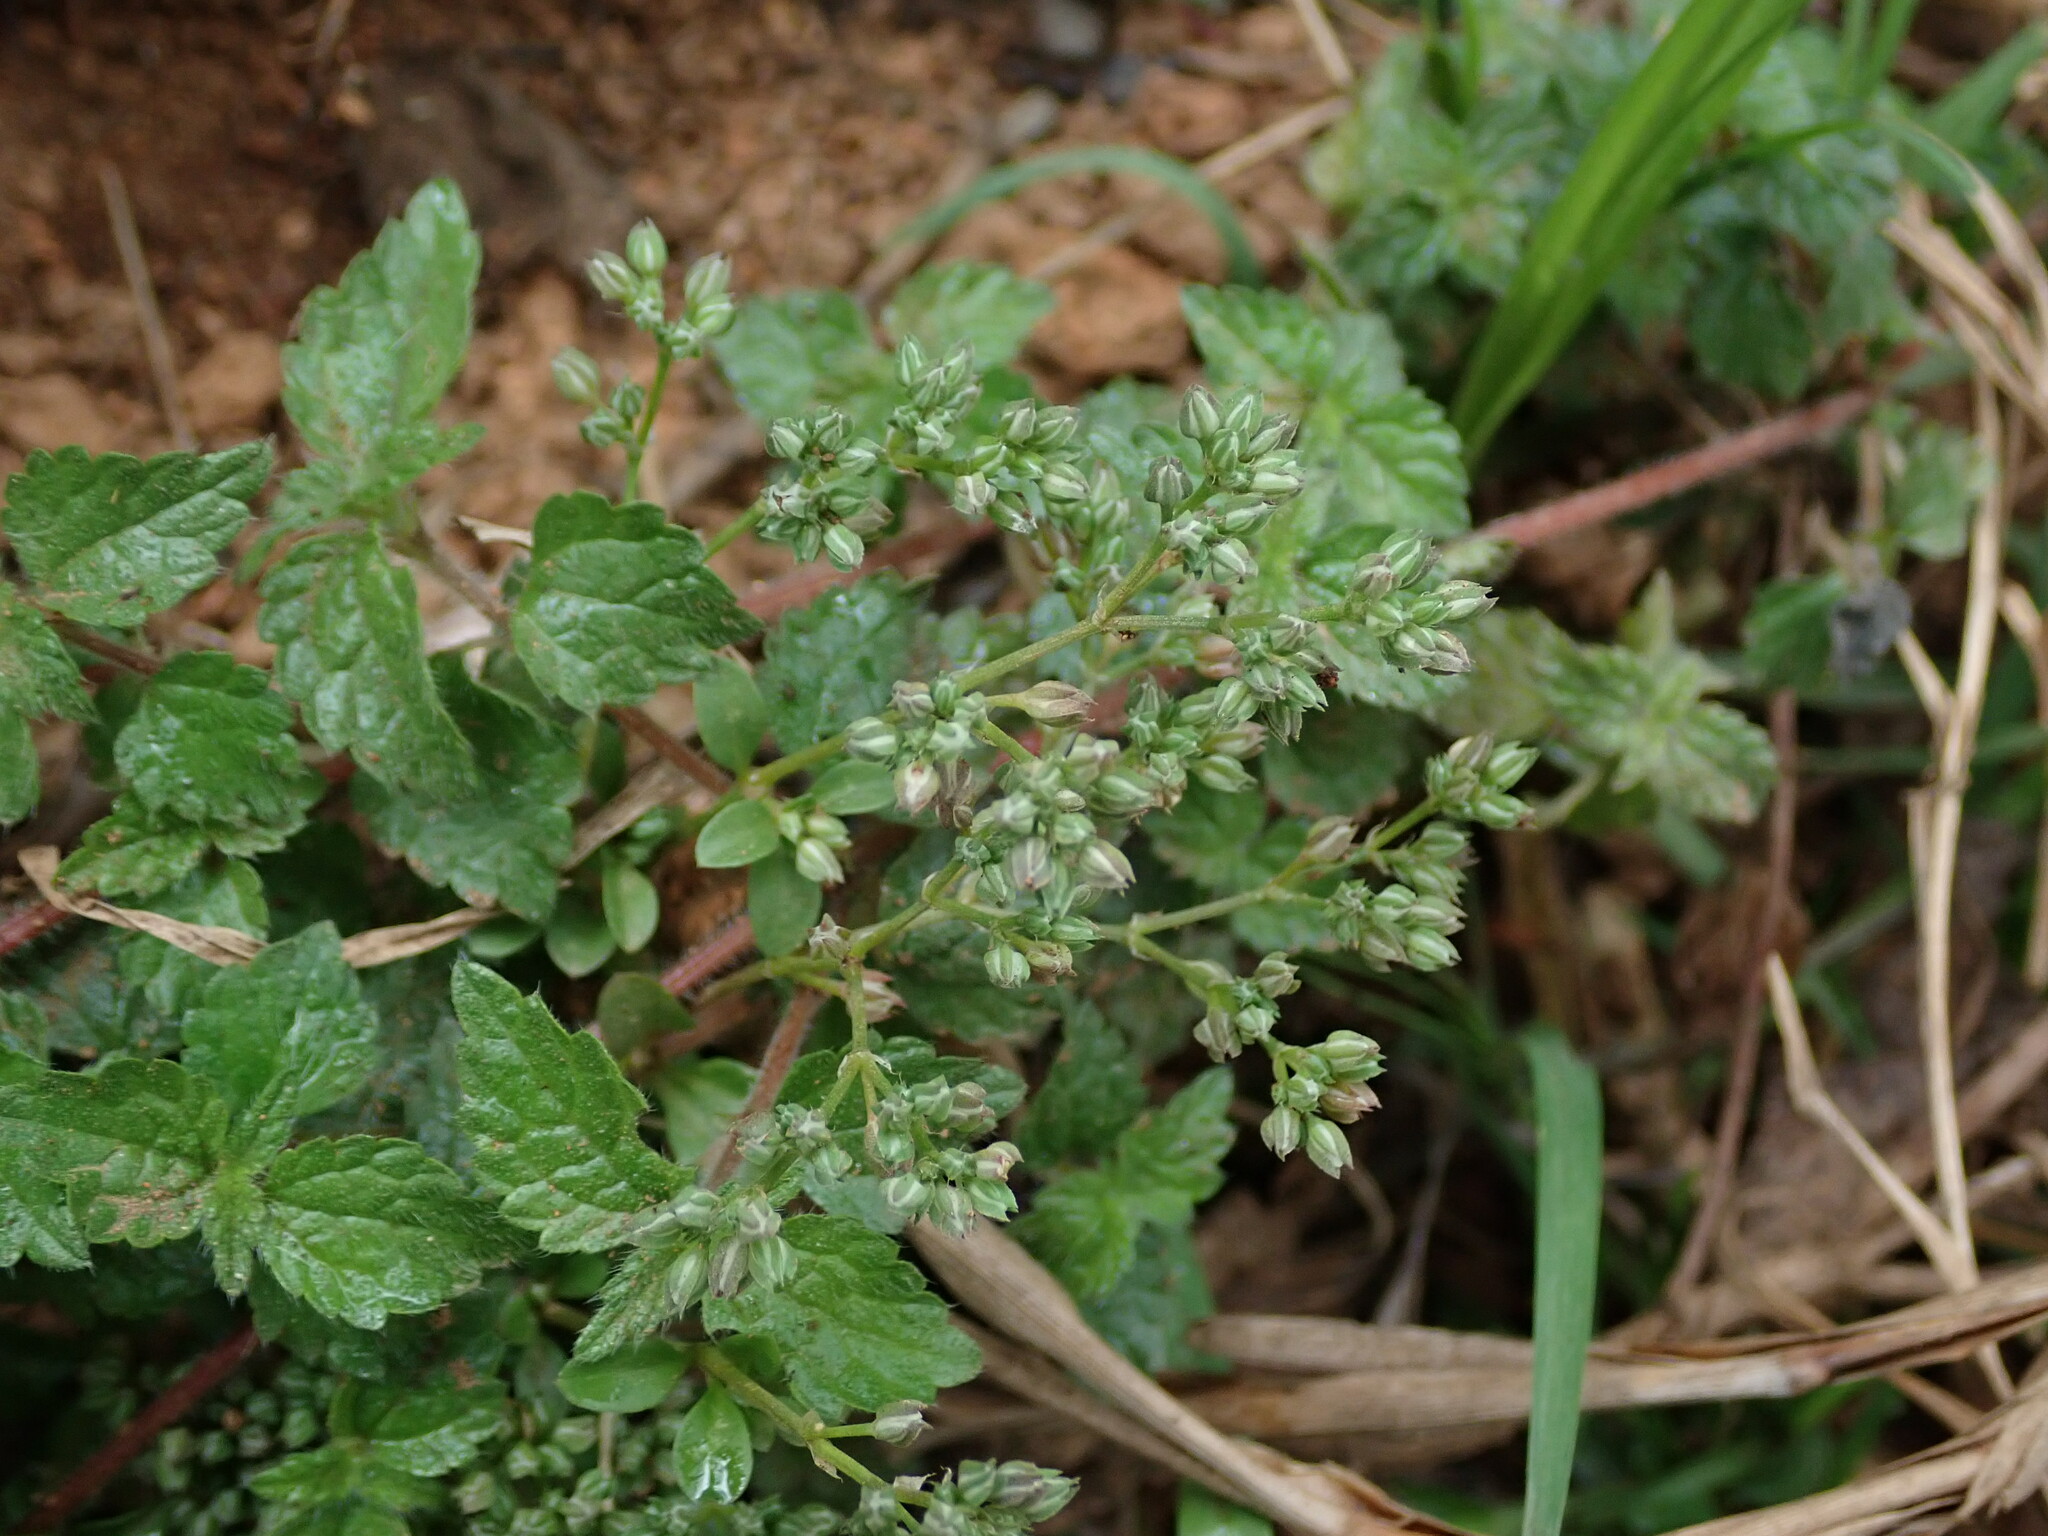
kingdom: Plantae
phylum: Tracheophyta
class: Magnoliopsida
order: Caryophyllales
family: Caryophyllaceae
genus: Polycarpon
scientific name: Polycarpon tetraphyllum
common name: Four-leaved all-seed
